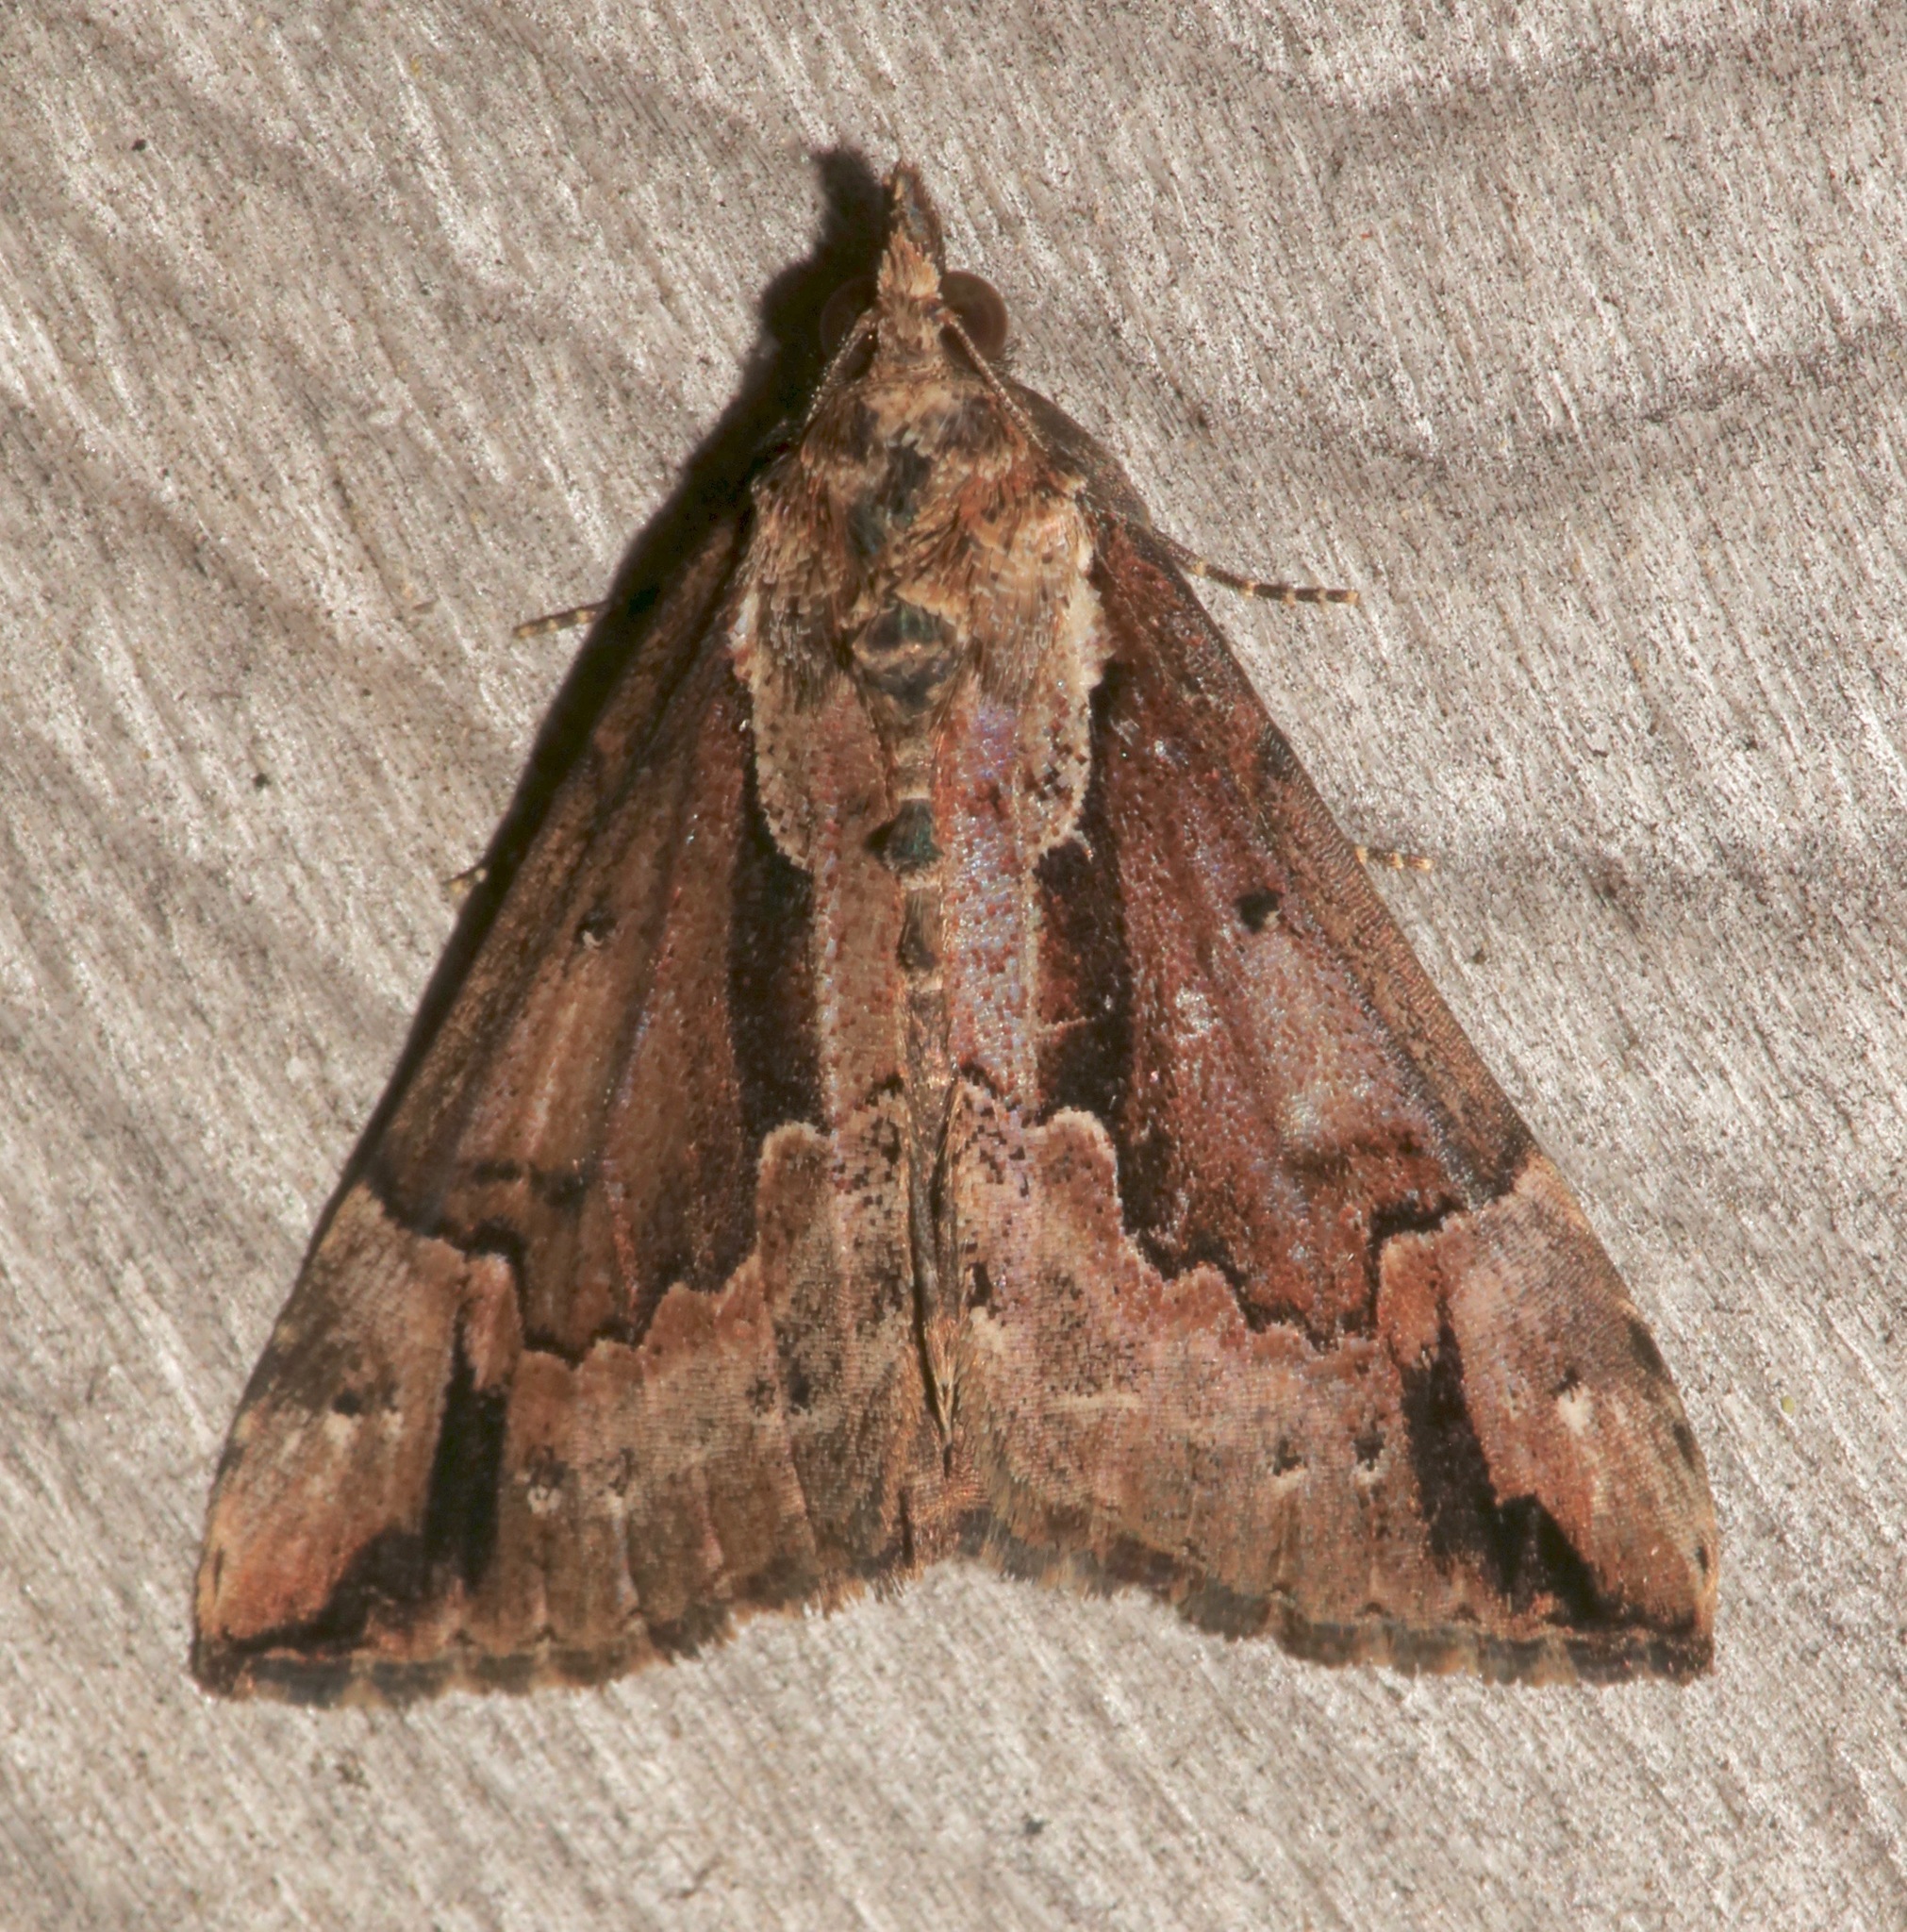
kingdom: Animalia
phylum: Arthropoda
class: Insecta
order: Lepidoptera
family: Erebidae
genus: Hypena
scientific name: Hypena baltimoralis
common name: Baltimore snout
